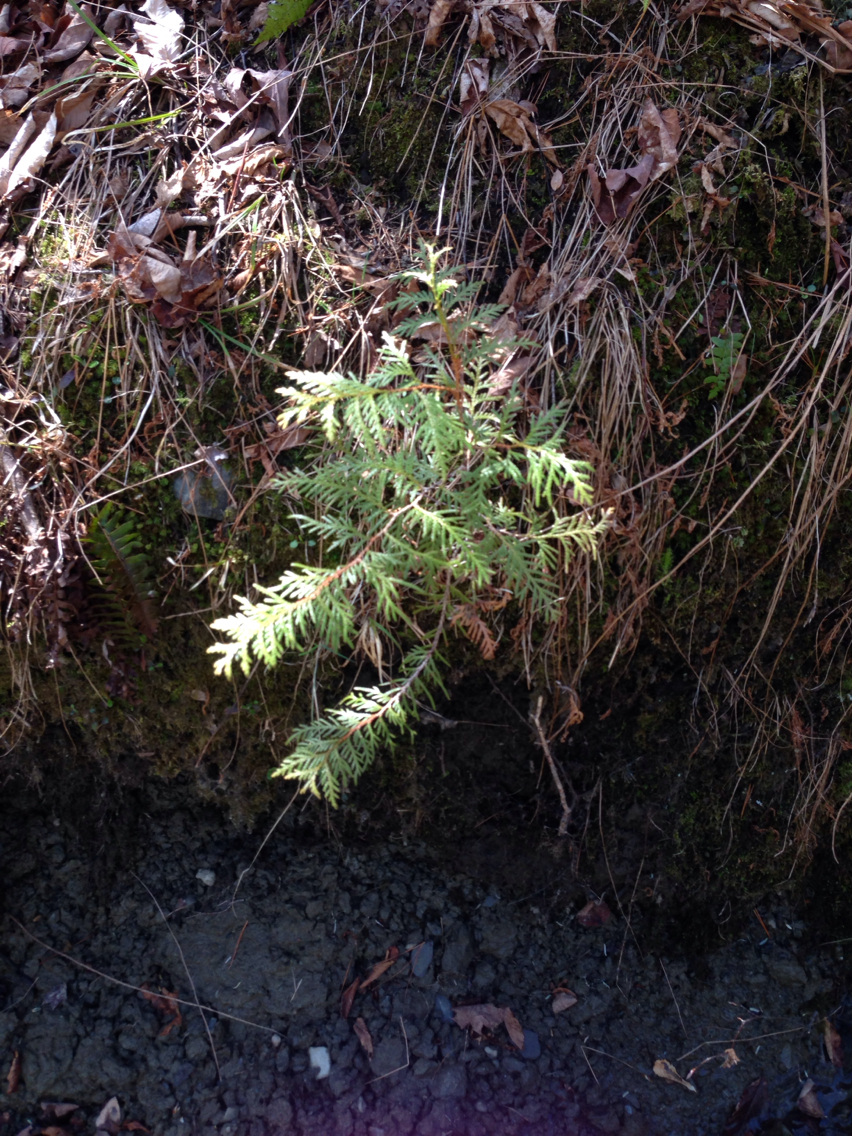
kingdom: Plantae
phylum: Tracheophyta
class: Pinopsida
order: Pinales
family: Cupressaceae
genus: Thuja
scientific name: Thuja occidentalis
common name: Northern white-cedar
